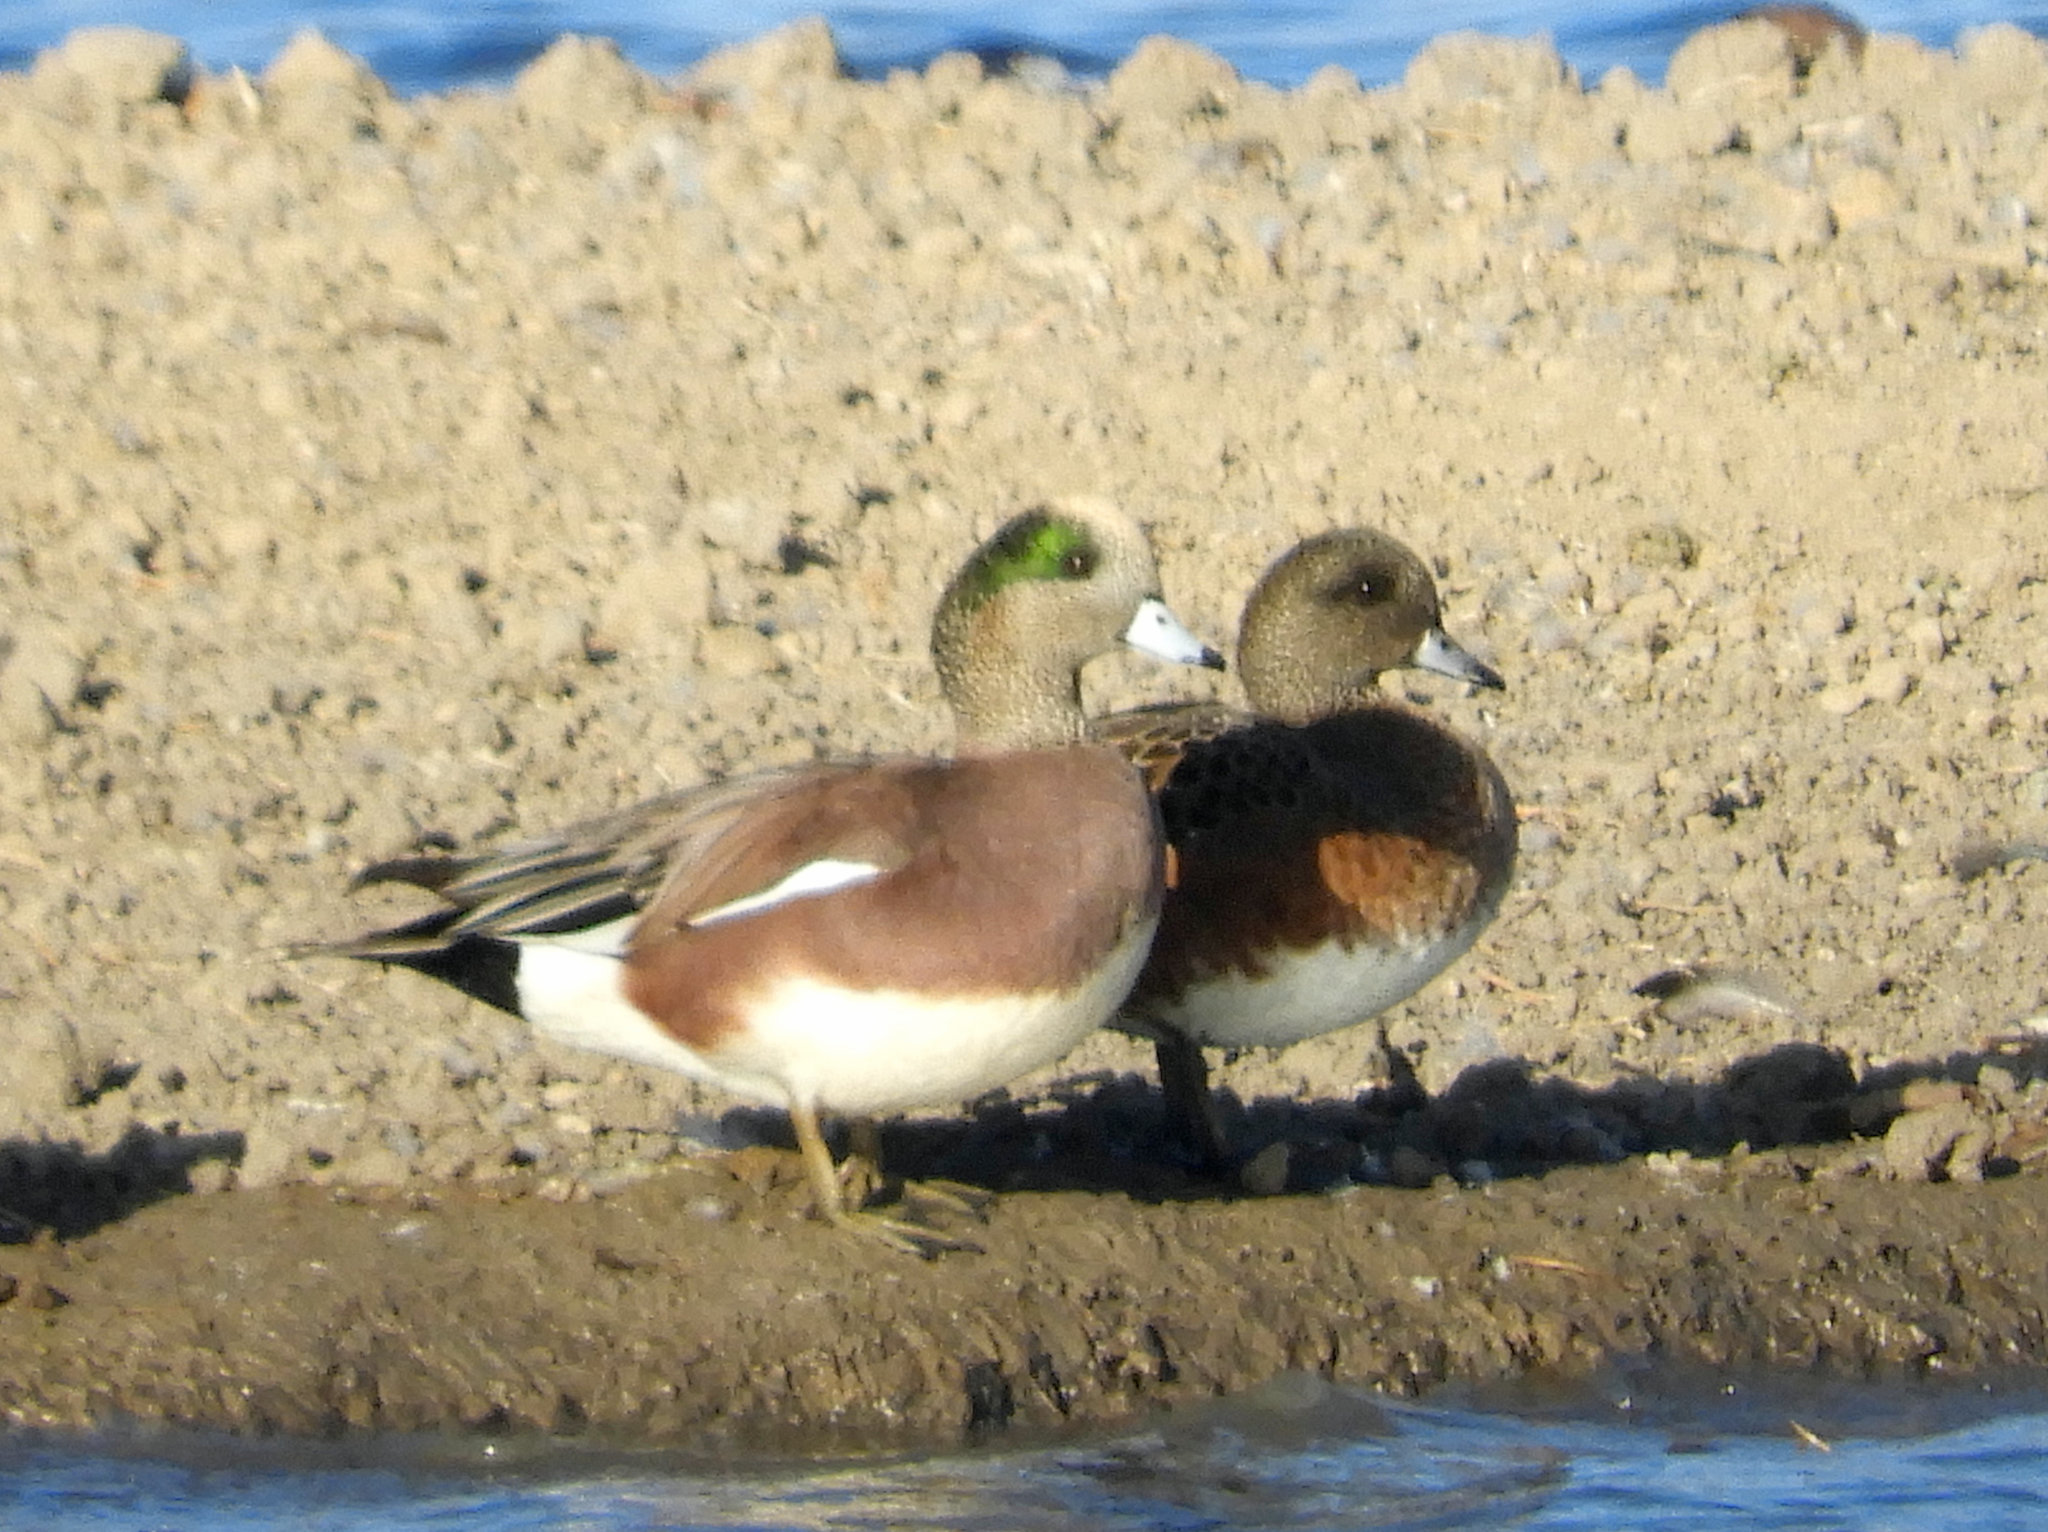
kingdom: Animalia
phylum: Chordata
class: Aves
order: Anseriformes
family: Anatidae
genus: Mareca
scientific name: Mareca americana
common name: American wigeon
